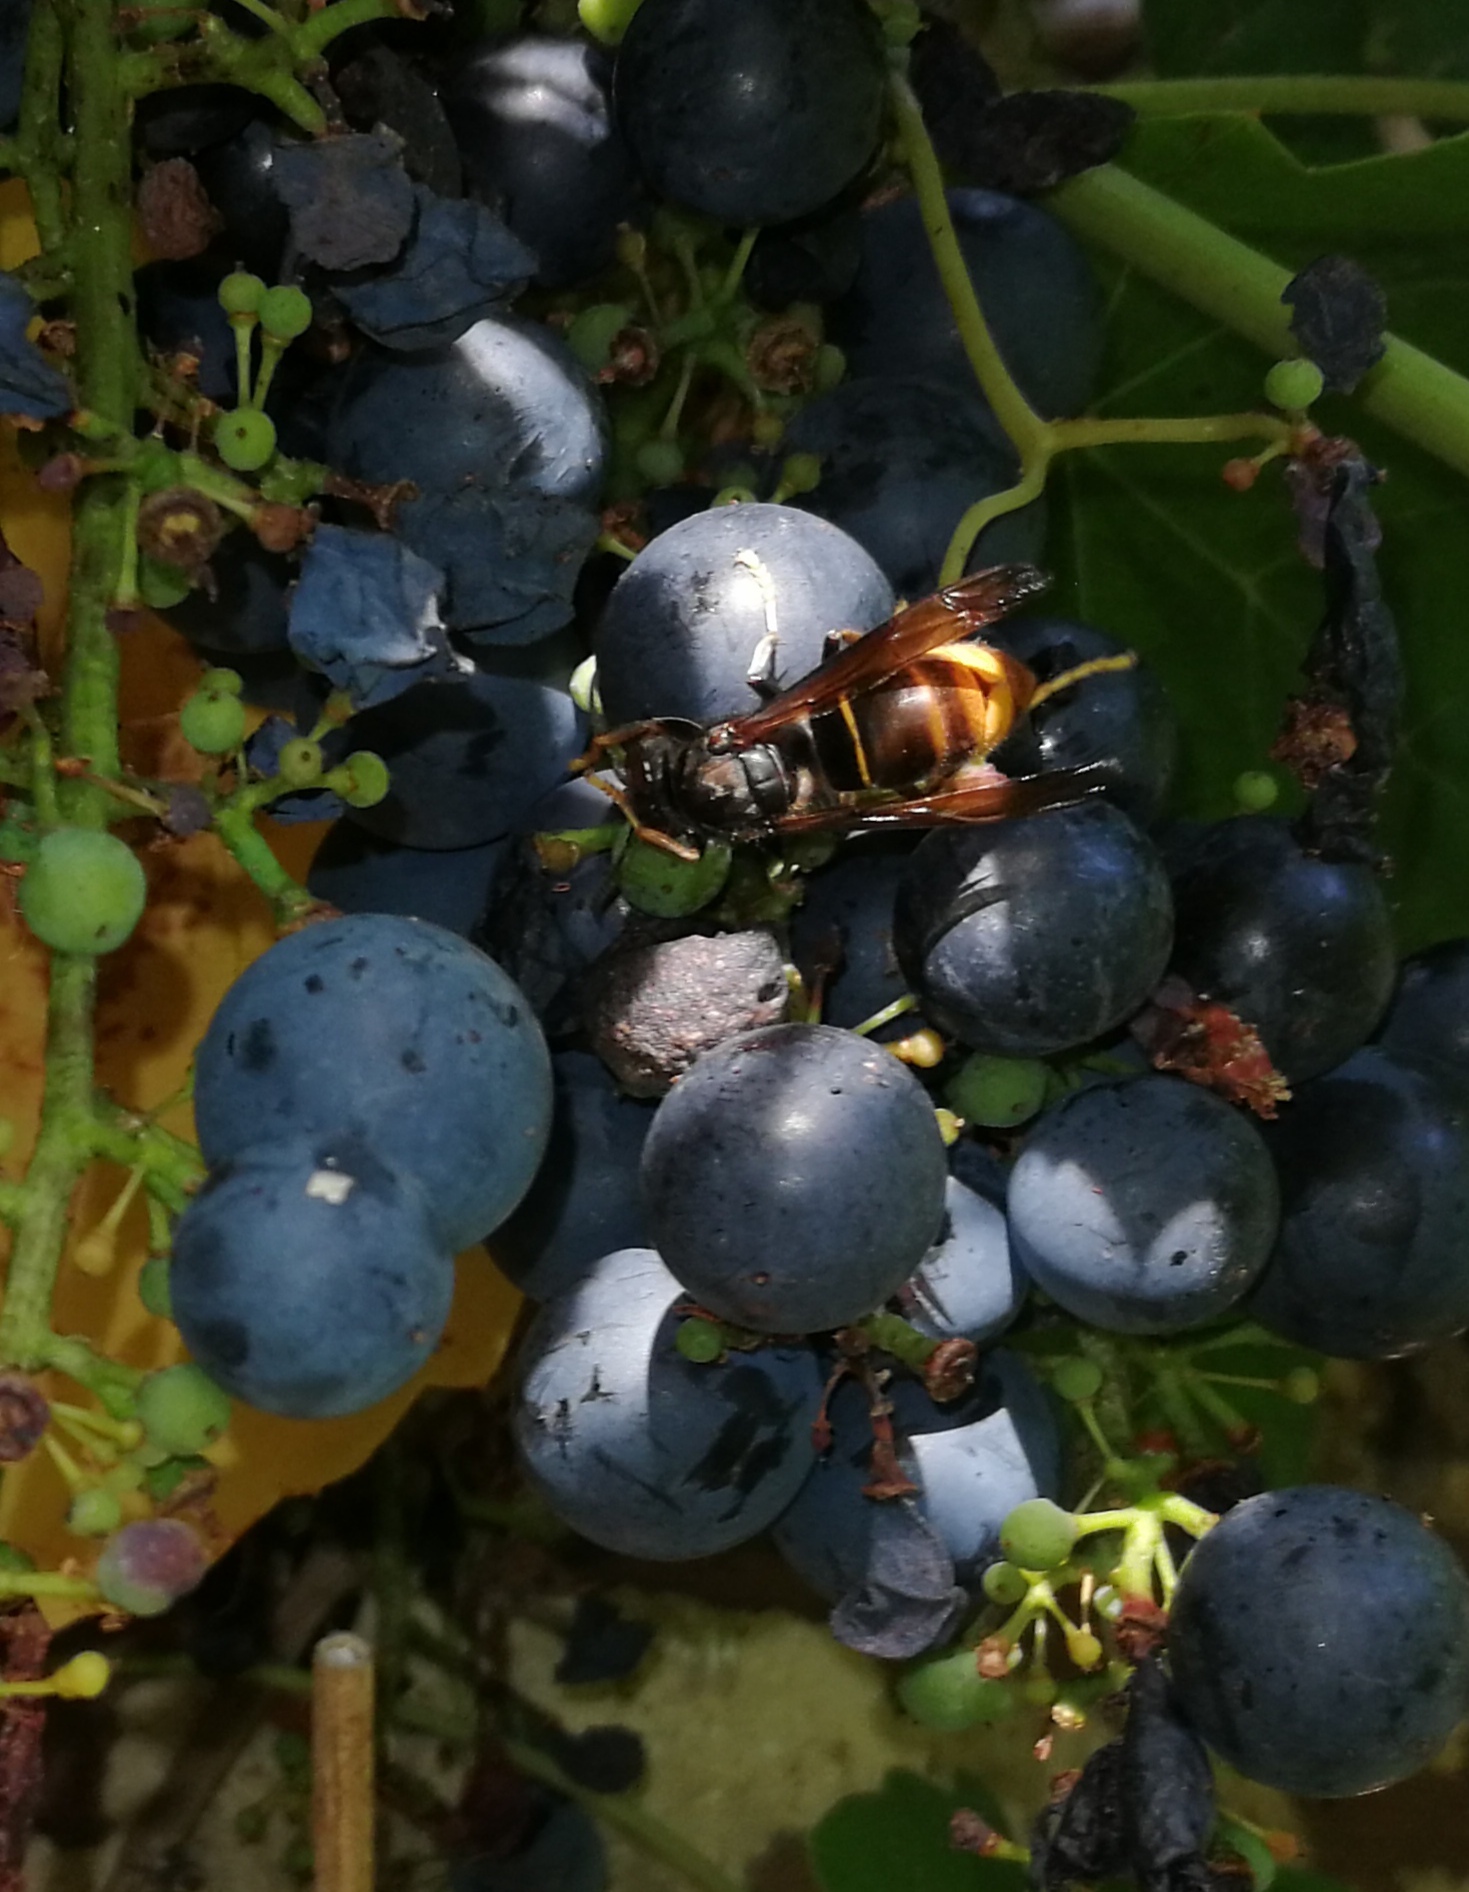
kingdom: Animalia
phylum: Arthropoda
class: Insecta
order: Hymenoptera
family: Vespidae
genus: Vespa
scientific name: Vespa velutina
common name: Asian hornet
